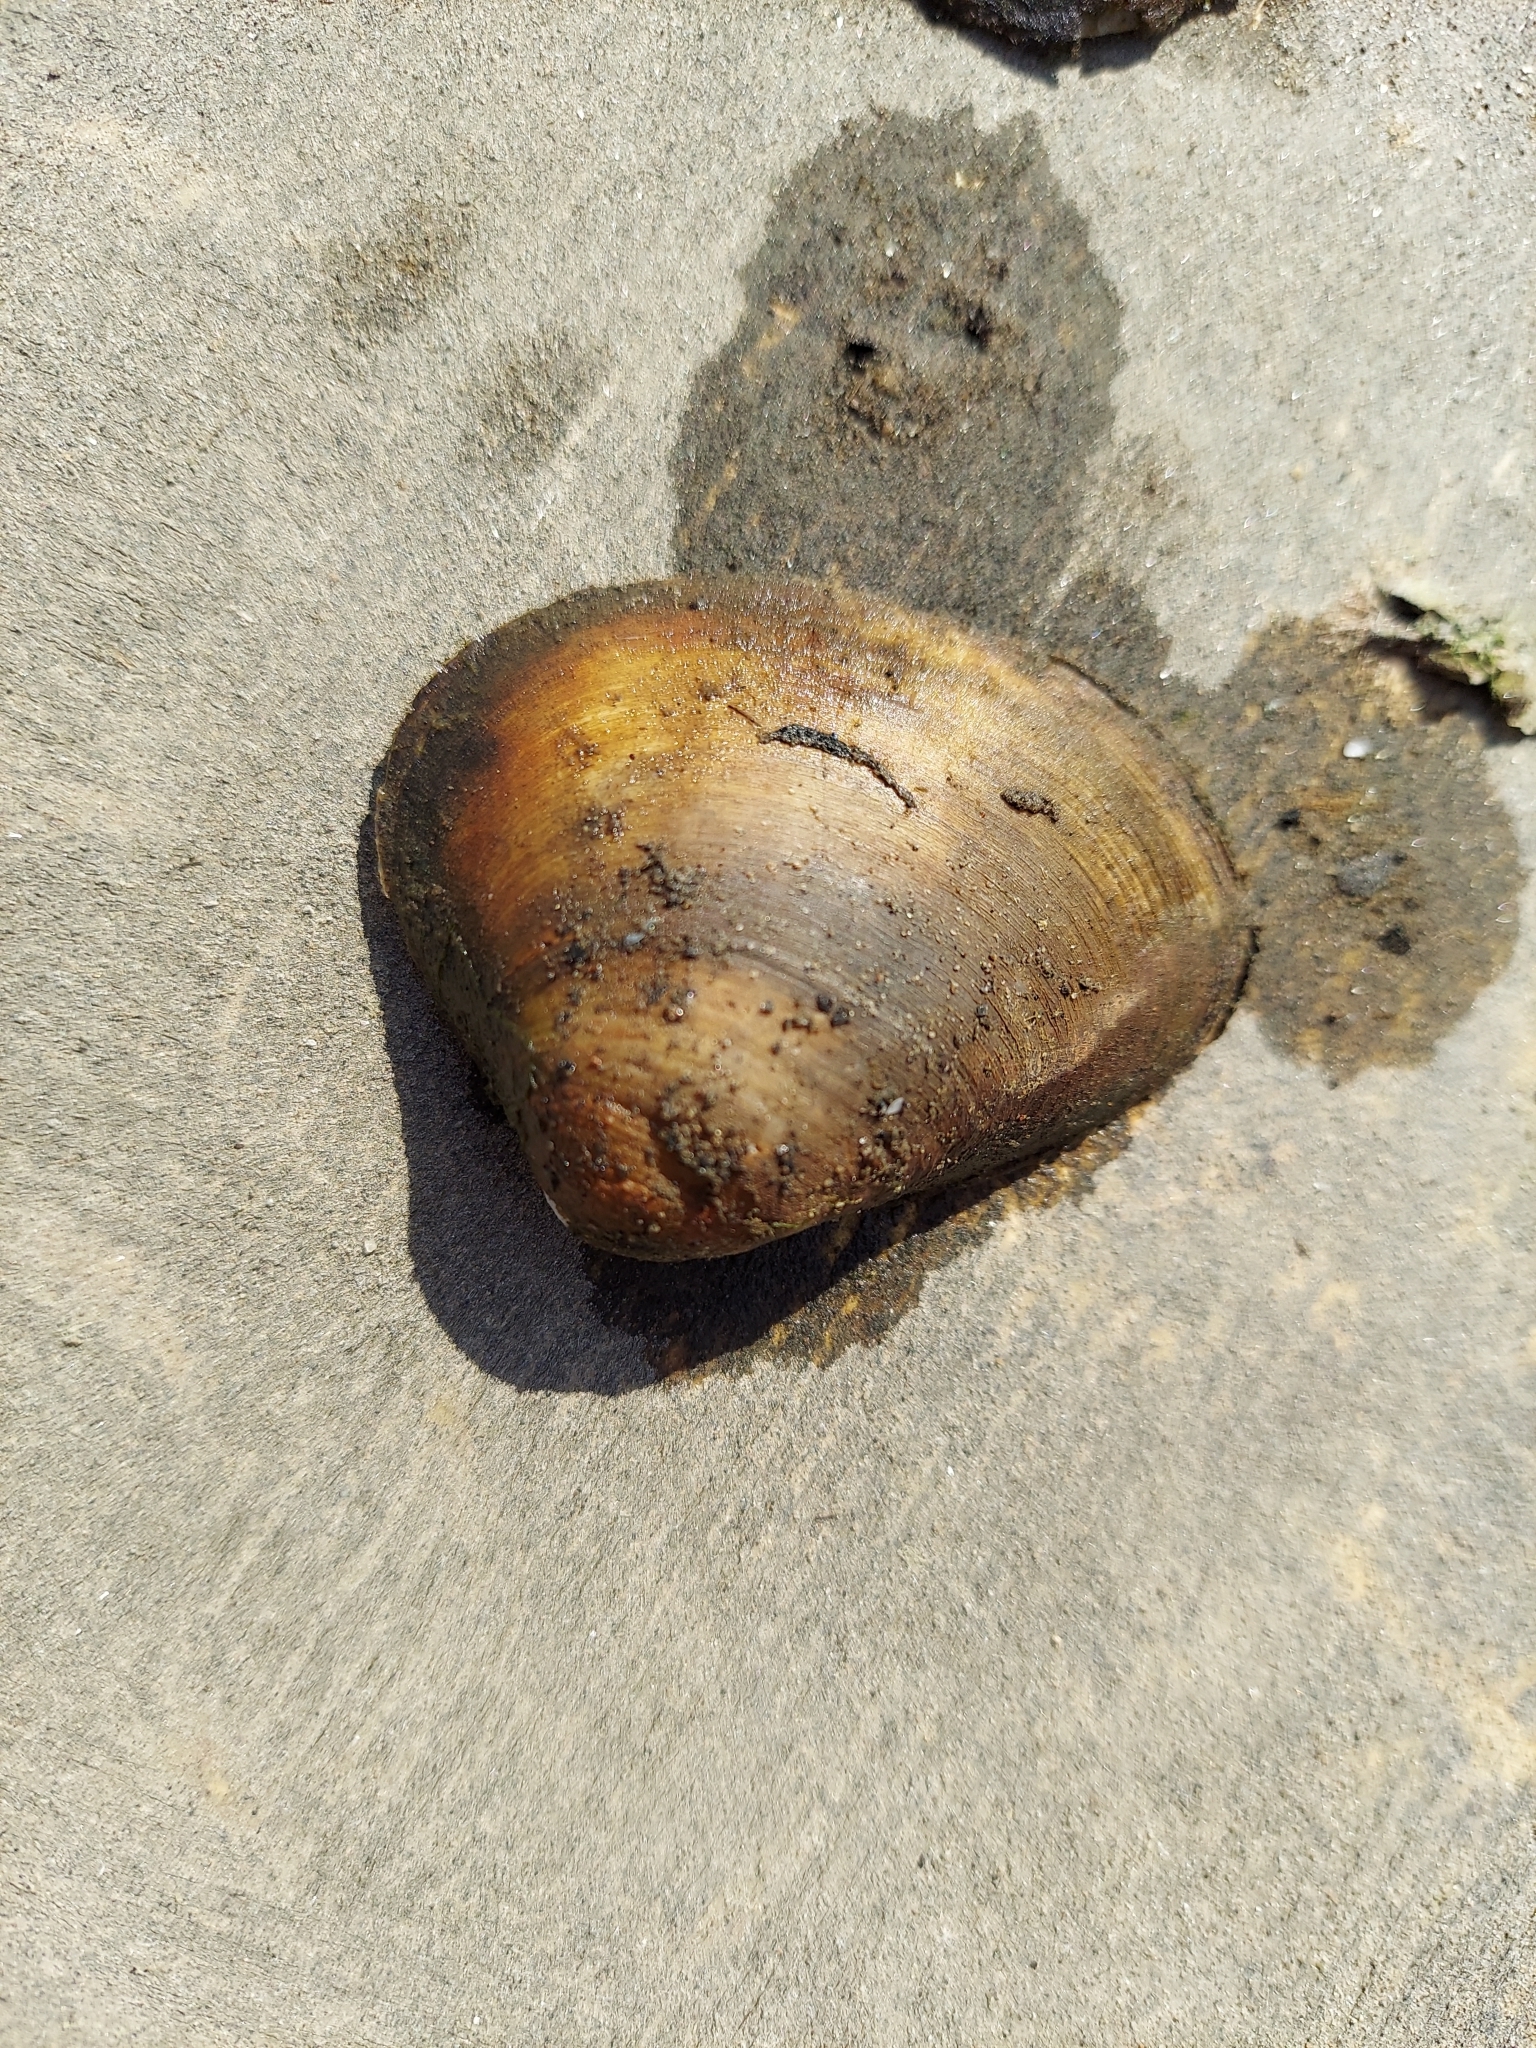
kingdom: Animalia
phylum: Mollusca
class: Bivalvia
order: Venerida
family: Mactridae
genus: Rangia
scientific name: Rangia cuneata
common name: Atlantic rangia
